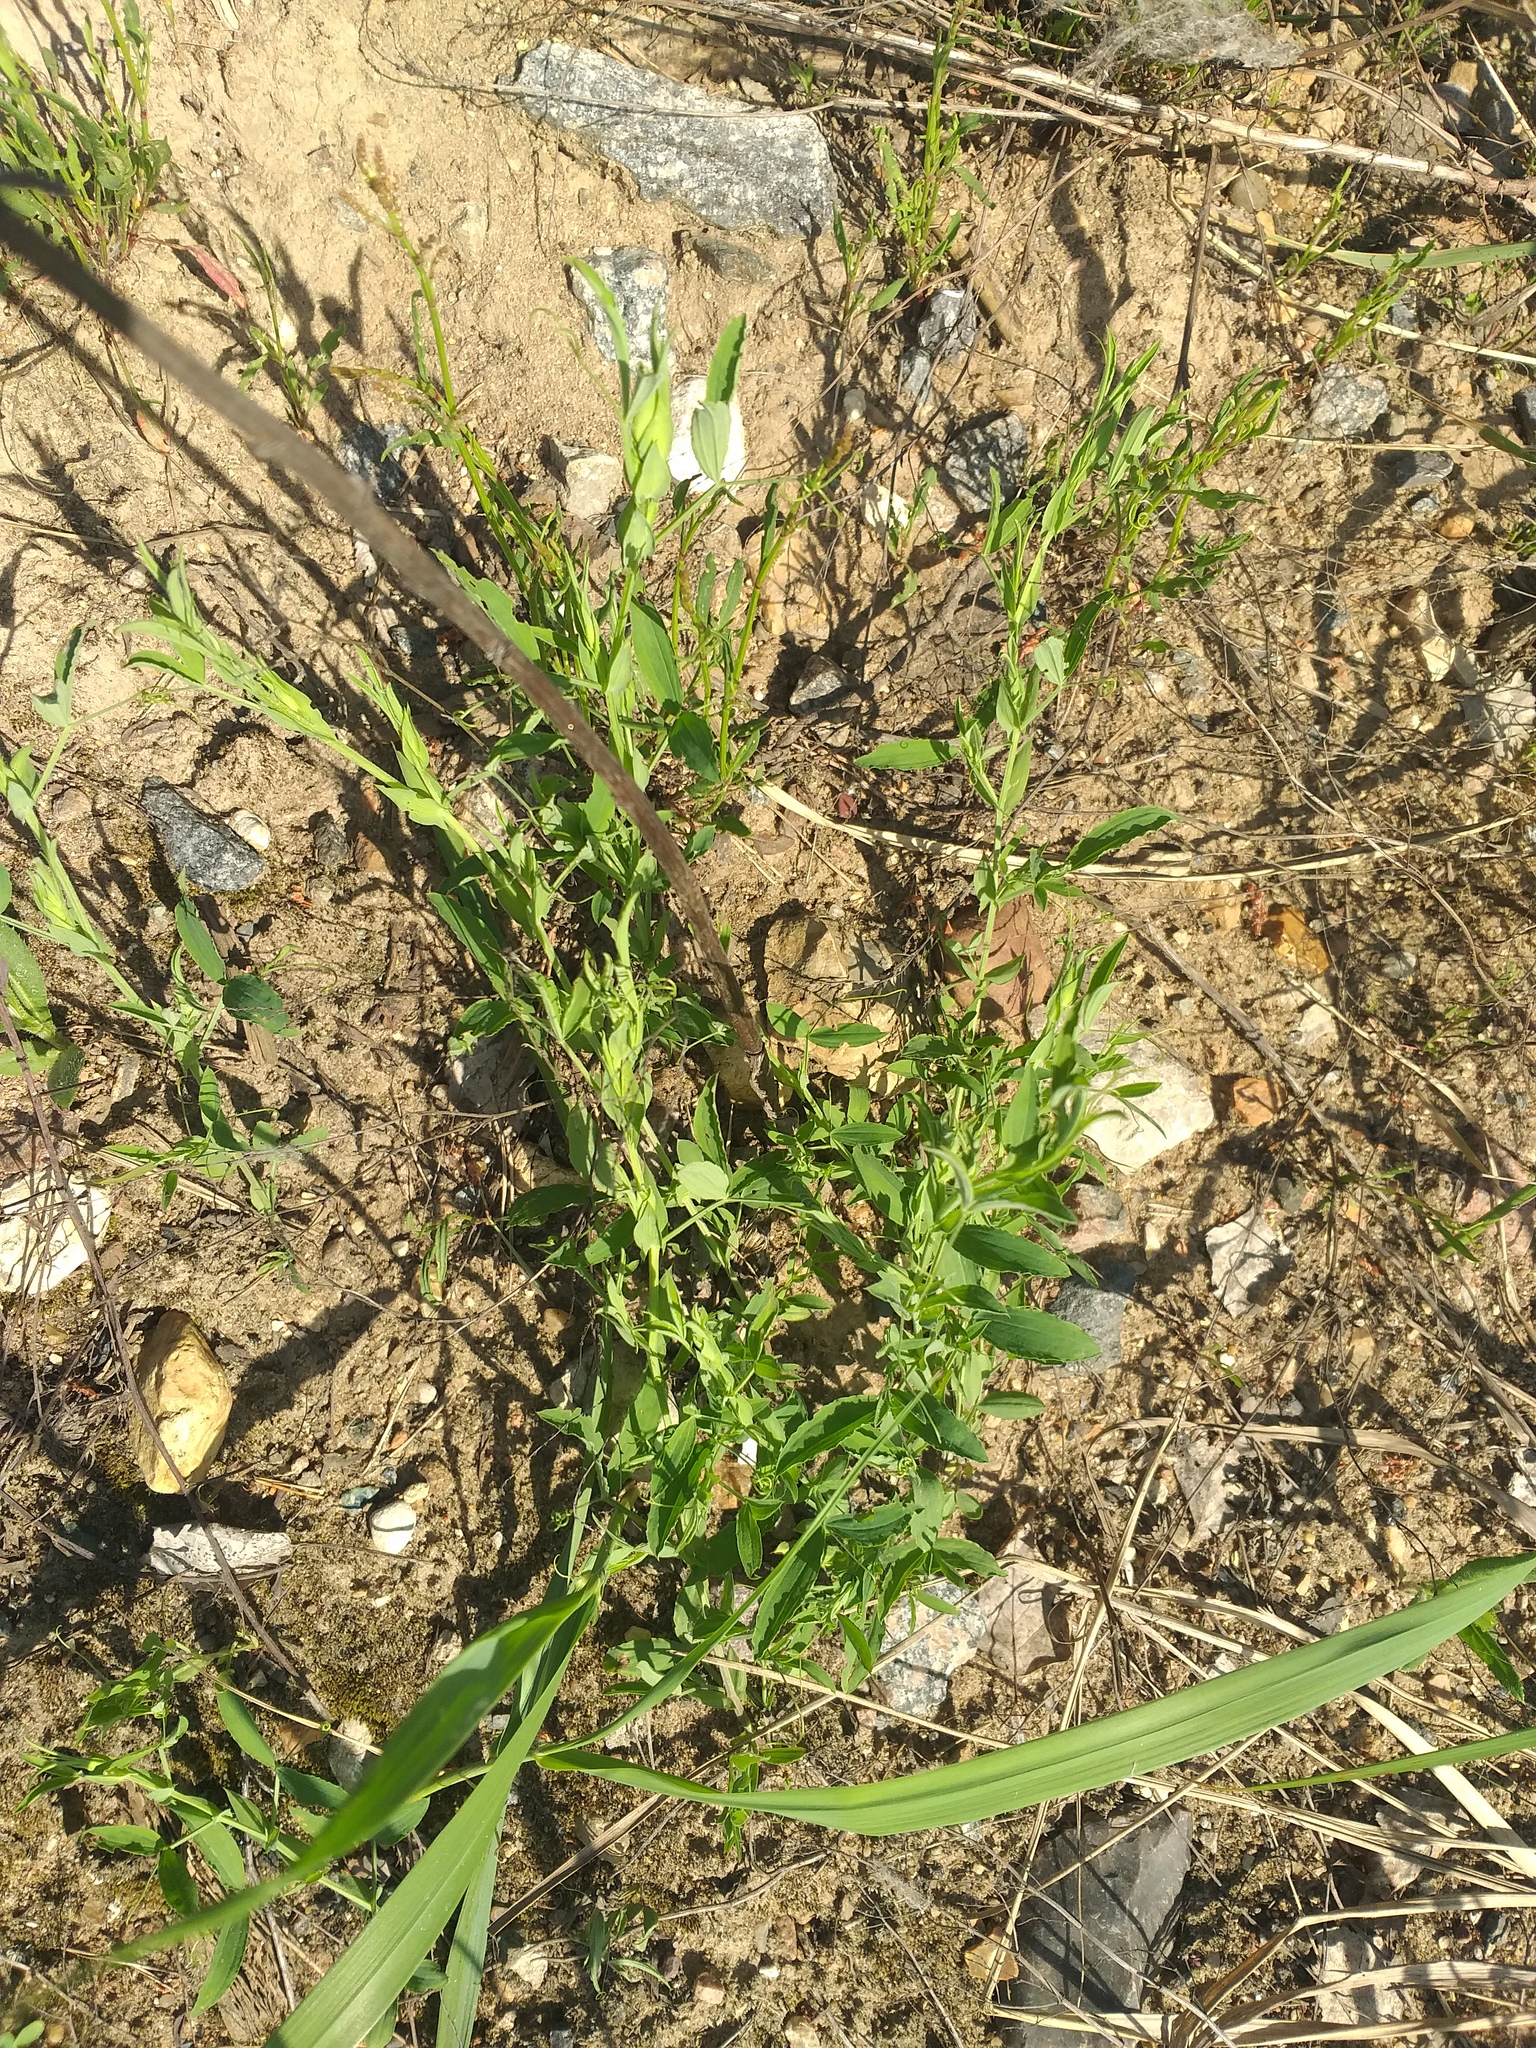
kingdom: Plantae
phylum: Tracheophyta
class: Magnoliopsida
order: Fabales
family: Fabaceae
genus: Lathyrus
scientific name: Lathyrus pratensis
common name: Meadow vetchling
